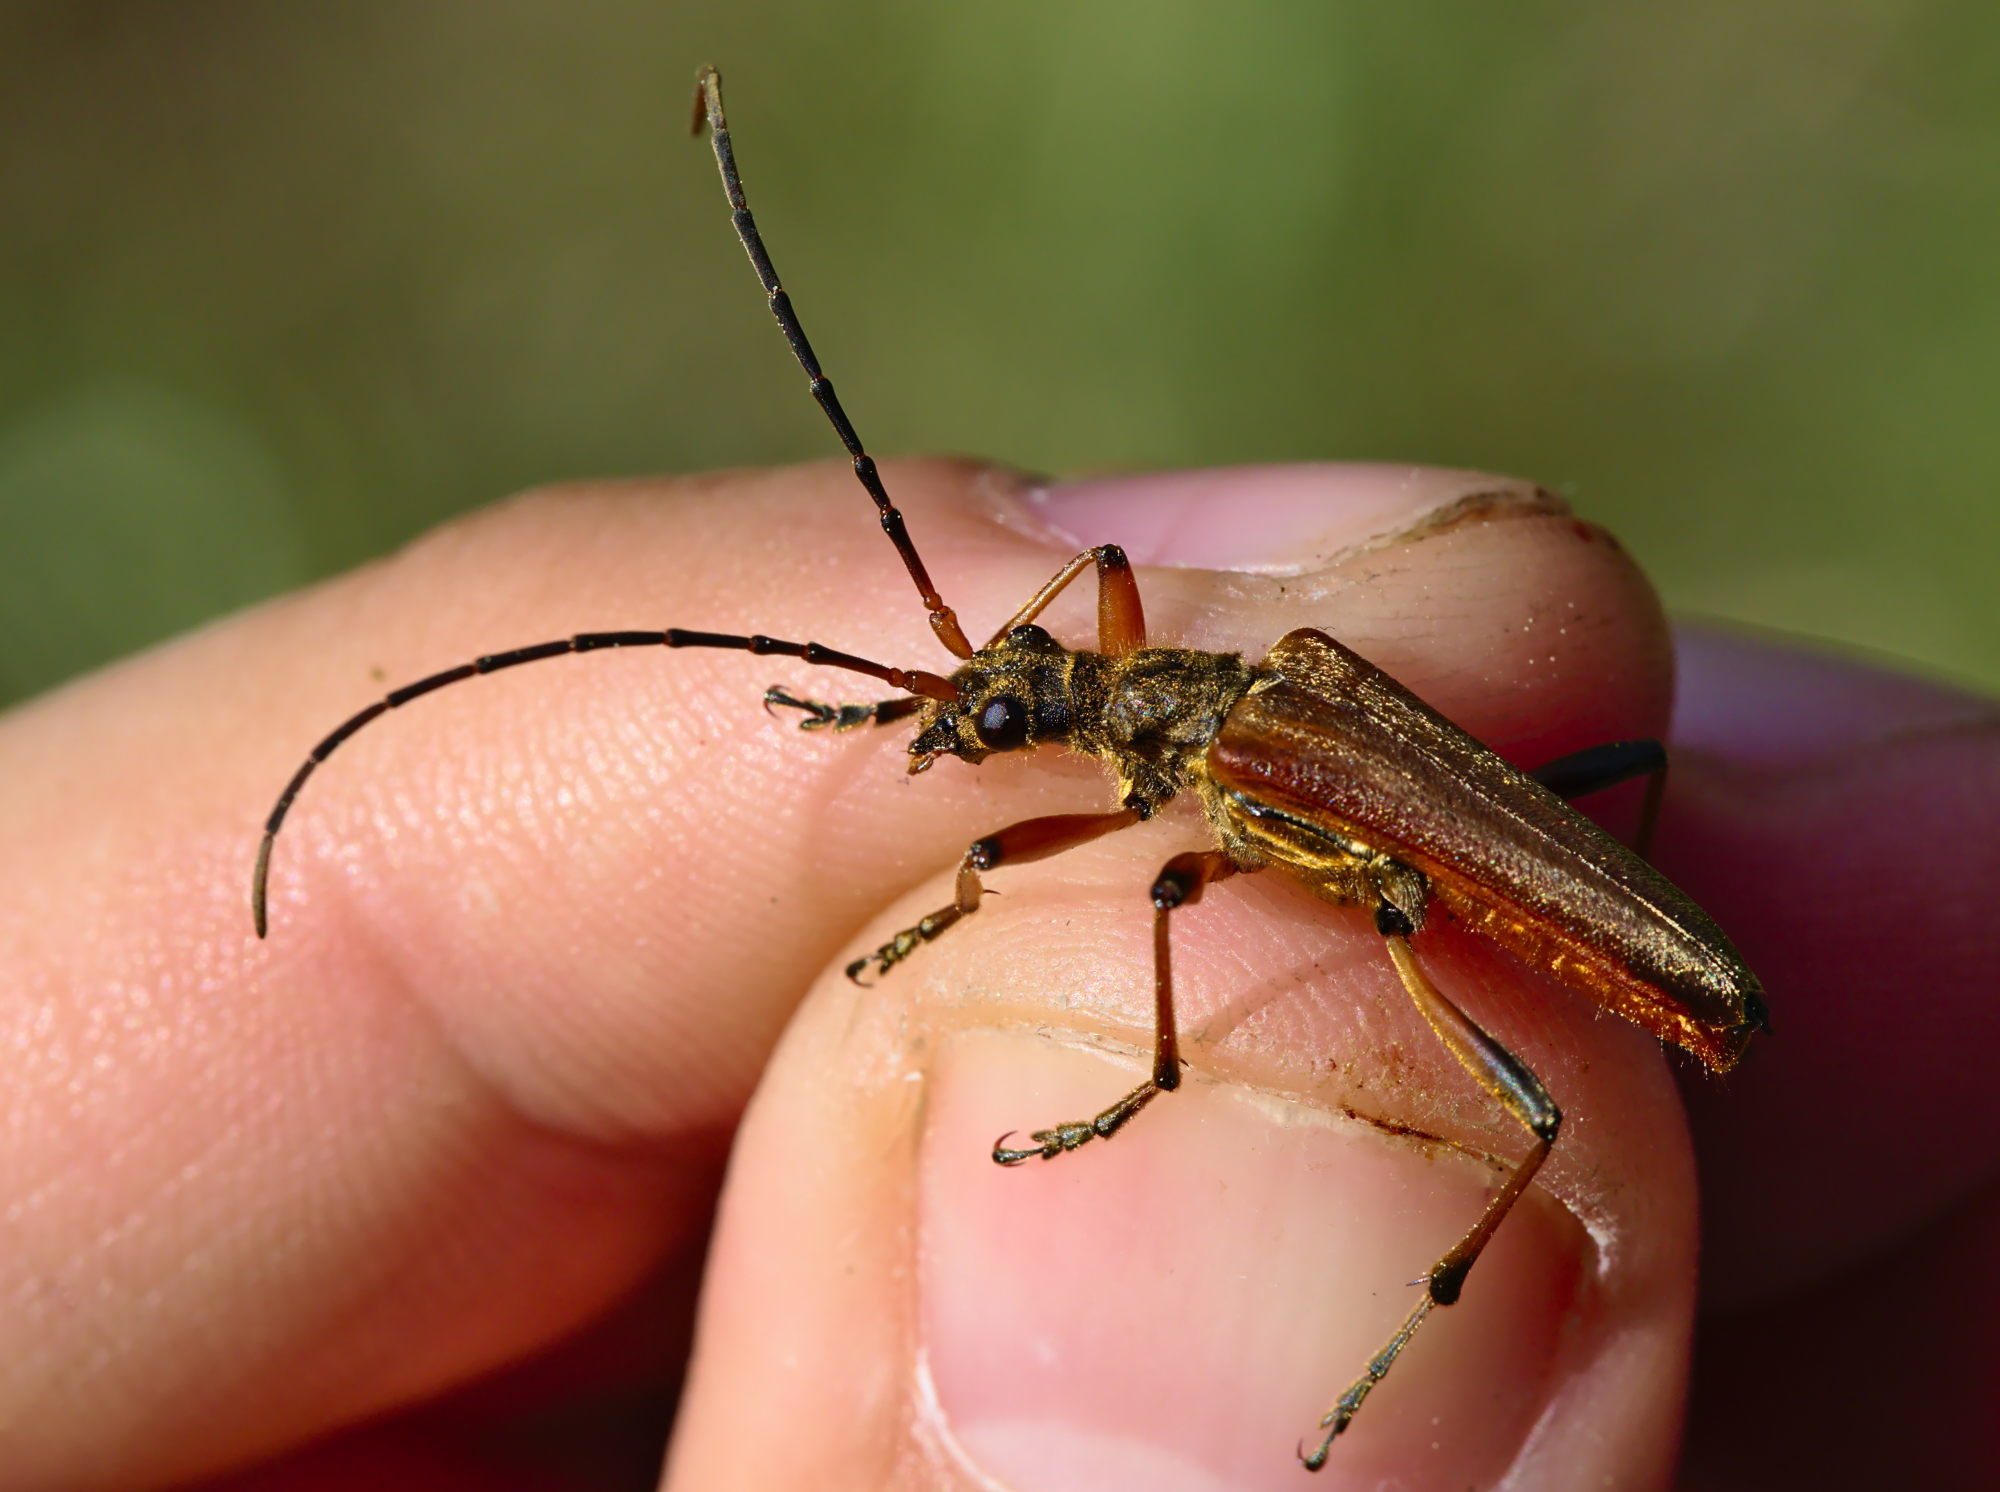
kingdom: Animalia
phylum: Arthropoda
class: Insecta
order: Coleoptera
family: Cerambycidae
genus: Stenocorus
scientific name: Stenocorus meridianus
